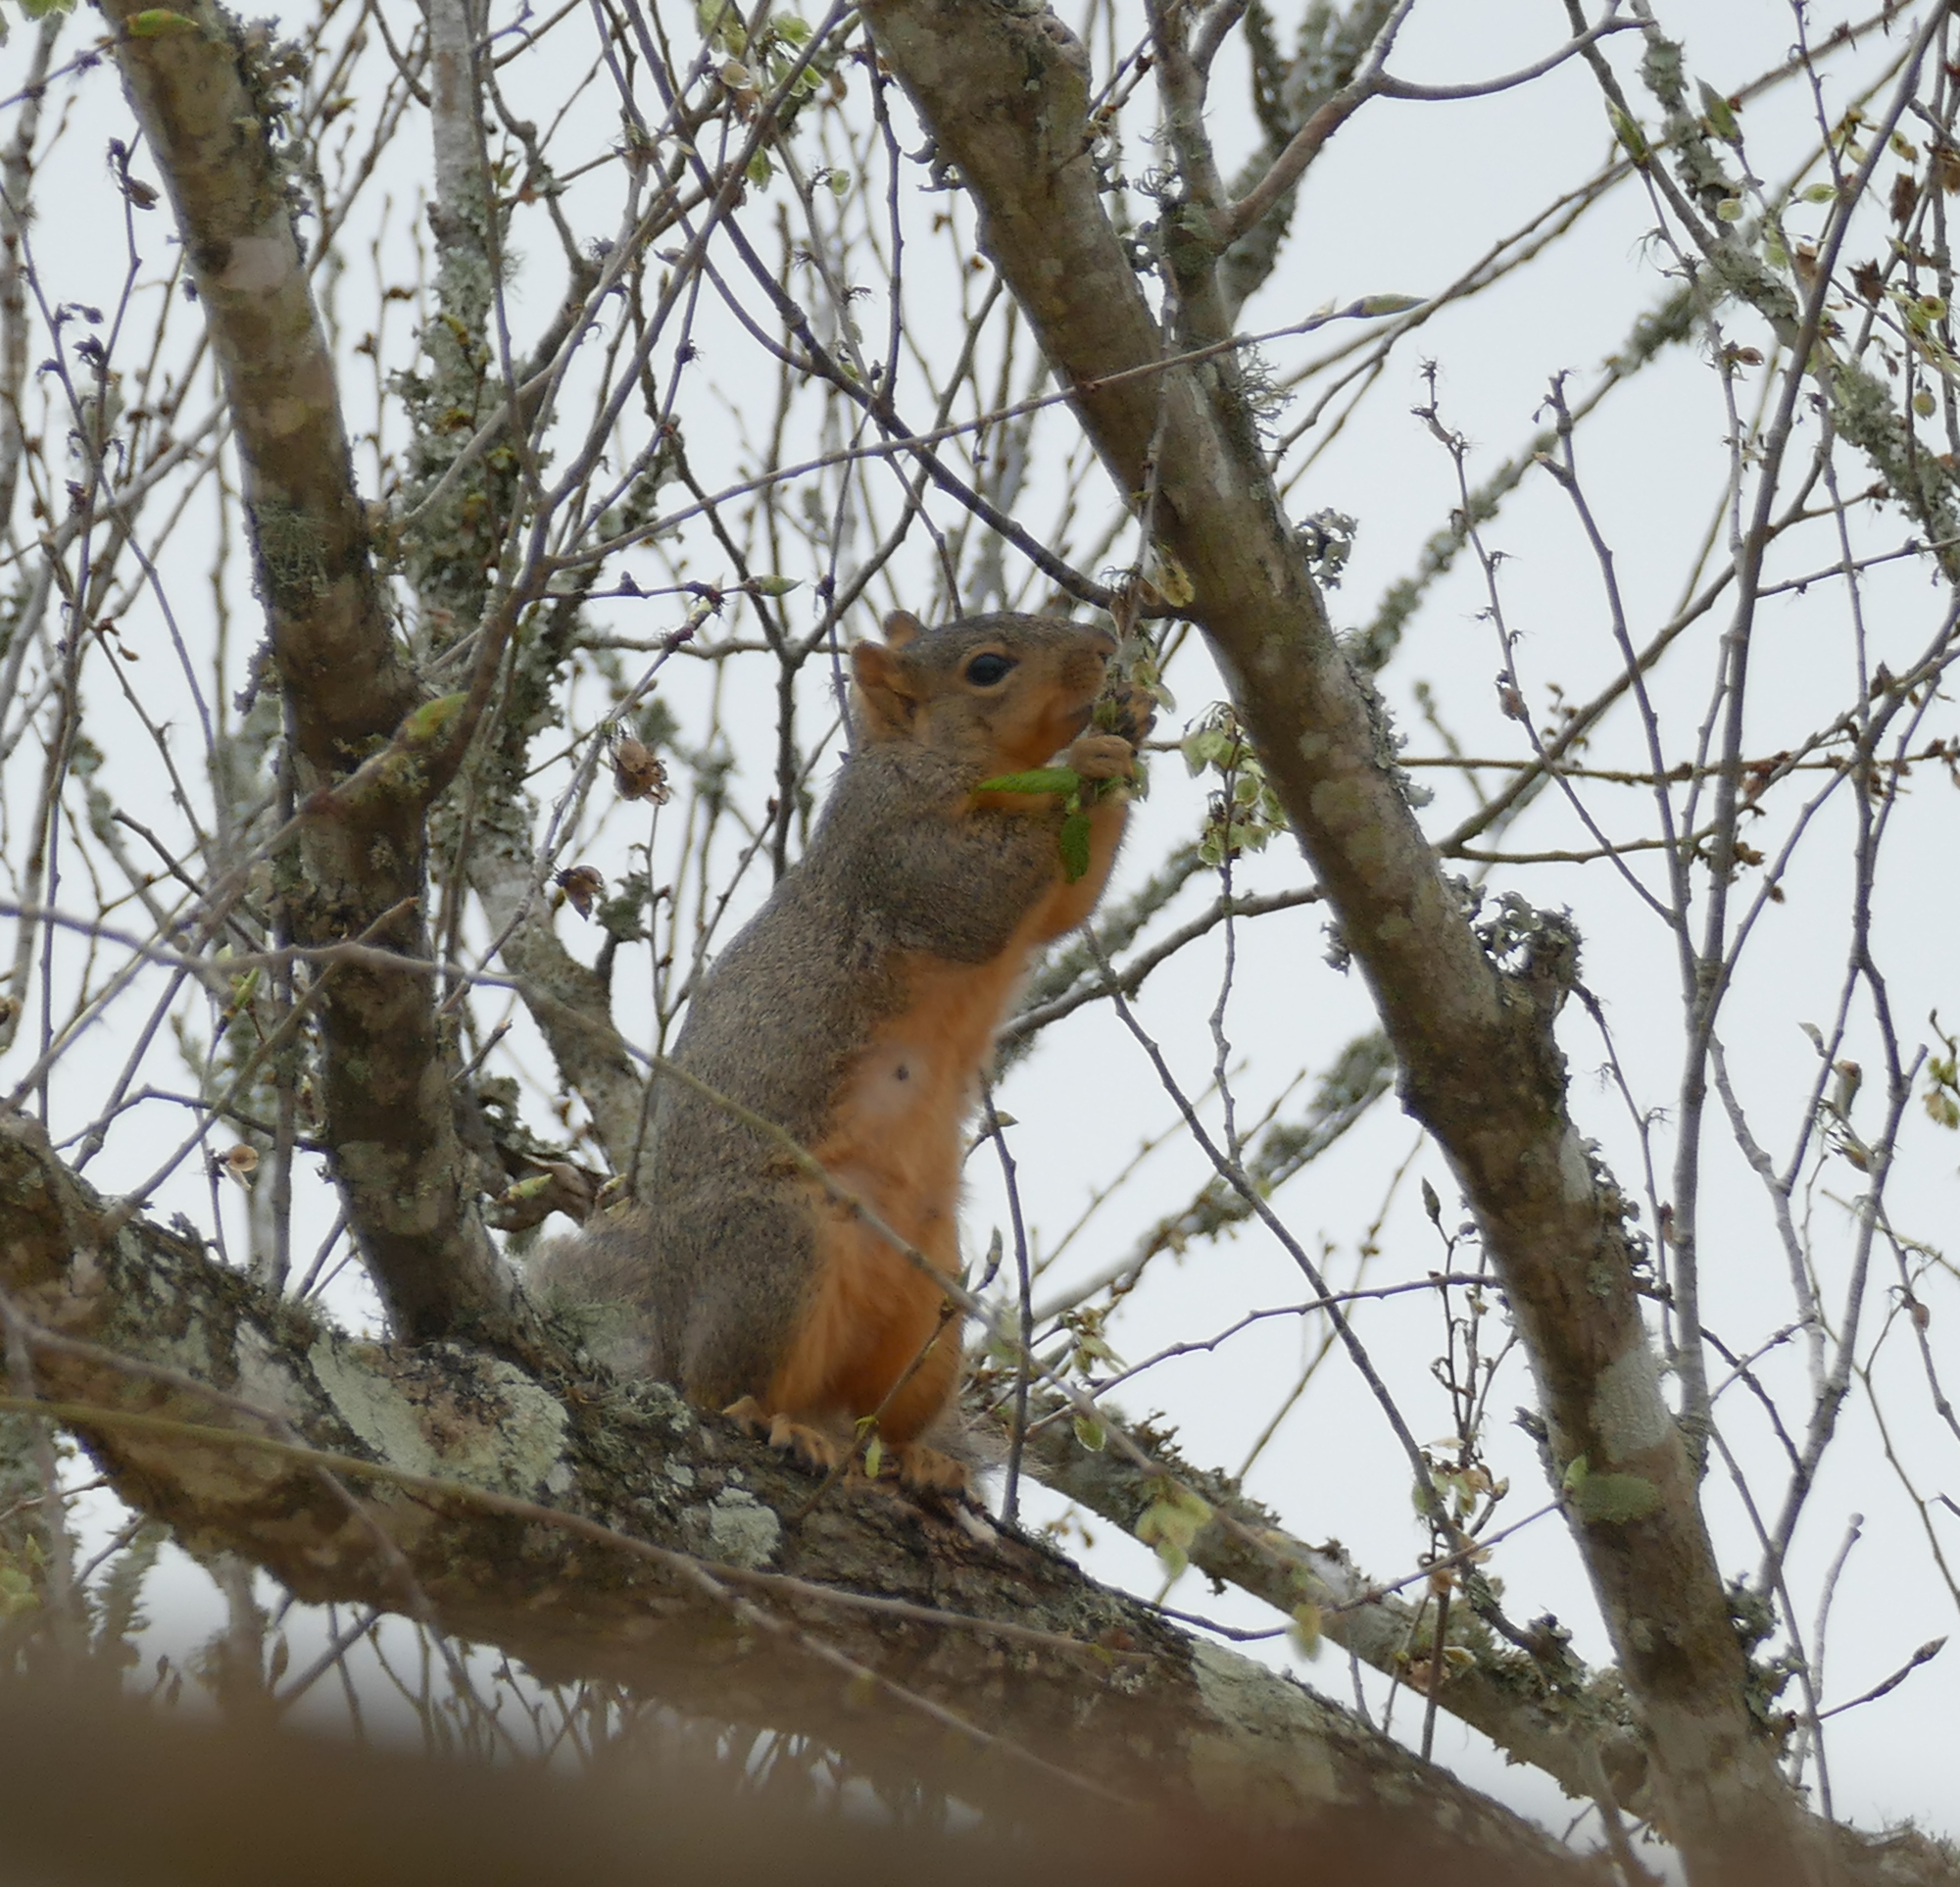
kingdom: Animalia
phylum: Chordata
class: Mammalia
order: Rodentia
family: Sciuridae
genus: Sciurus
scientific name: Sciurus niger
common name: Fox squirrel
